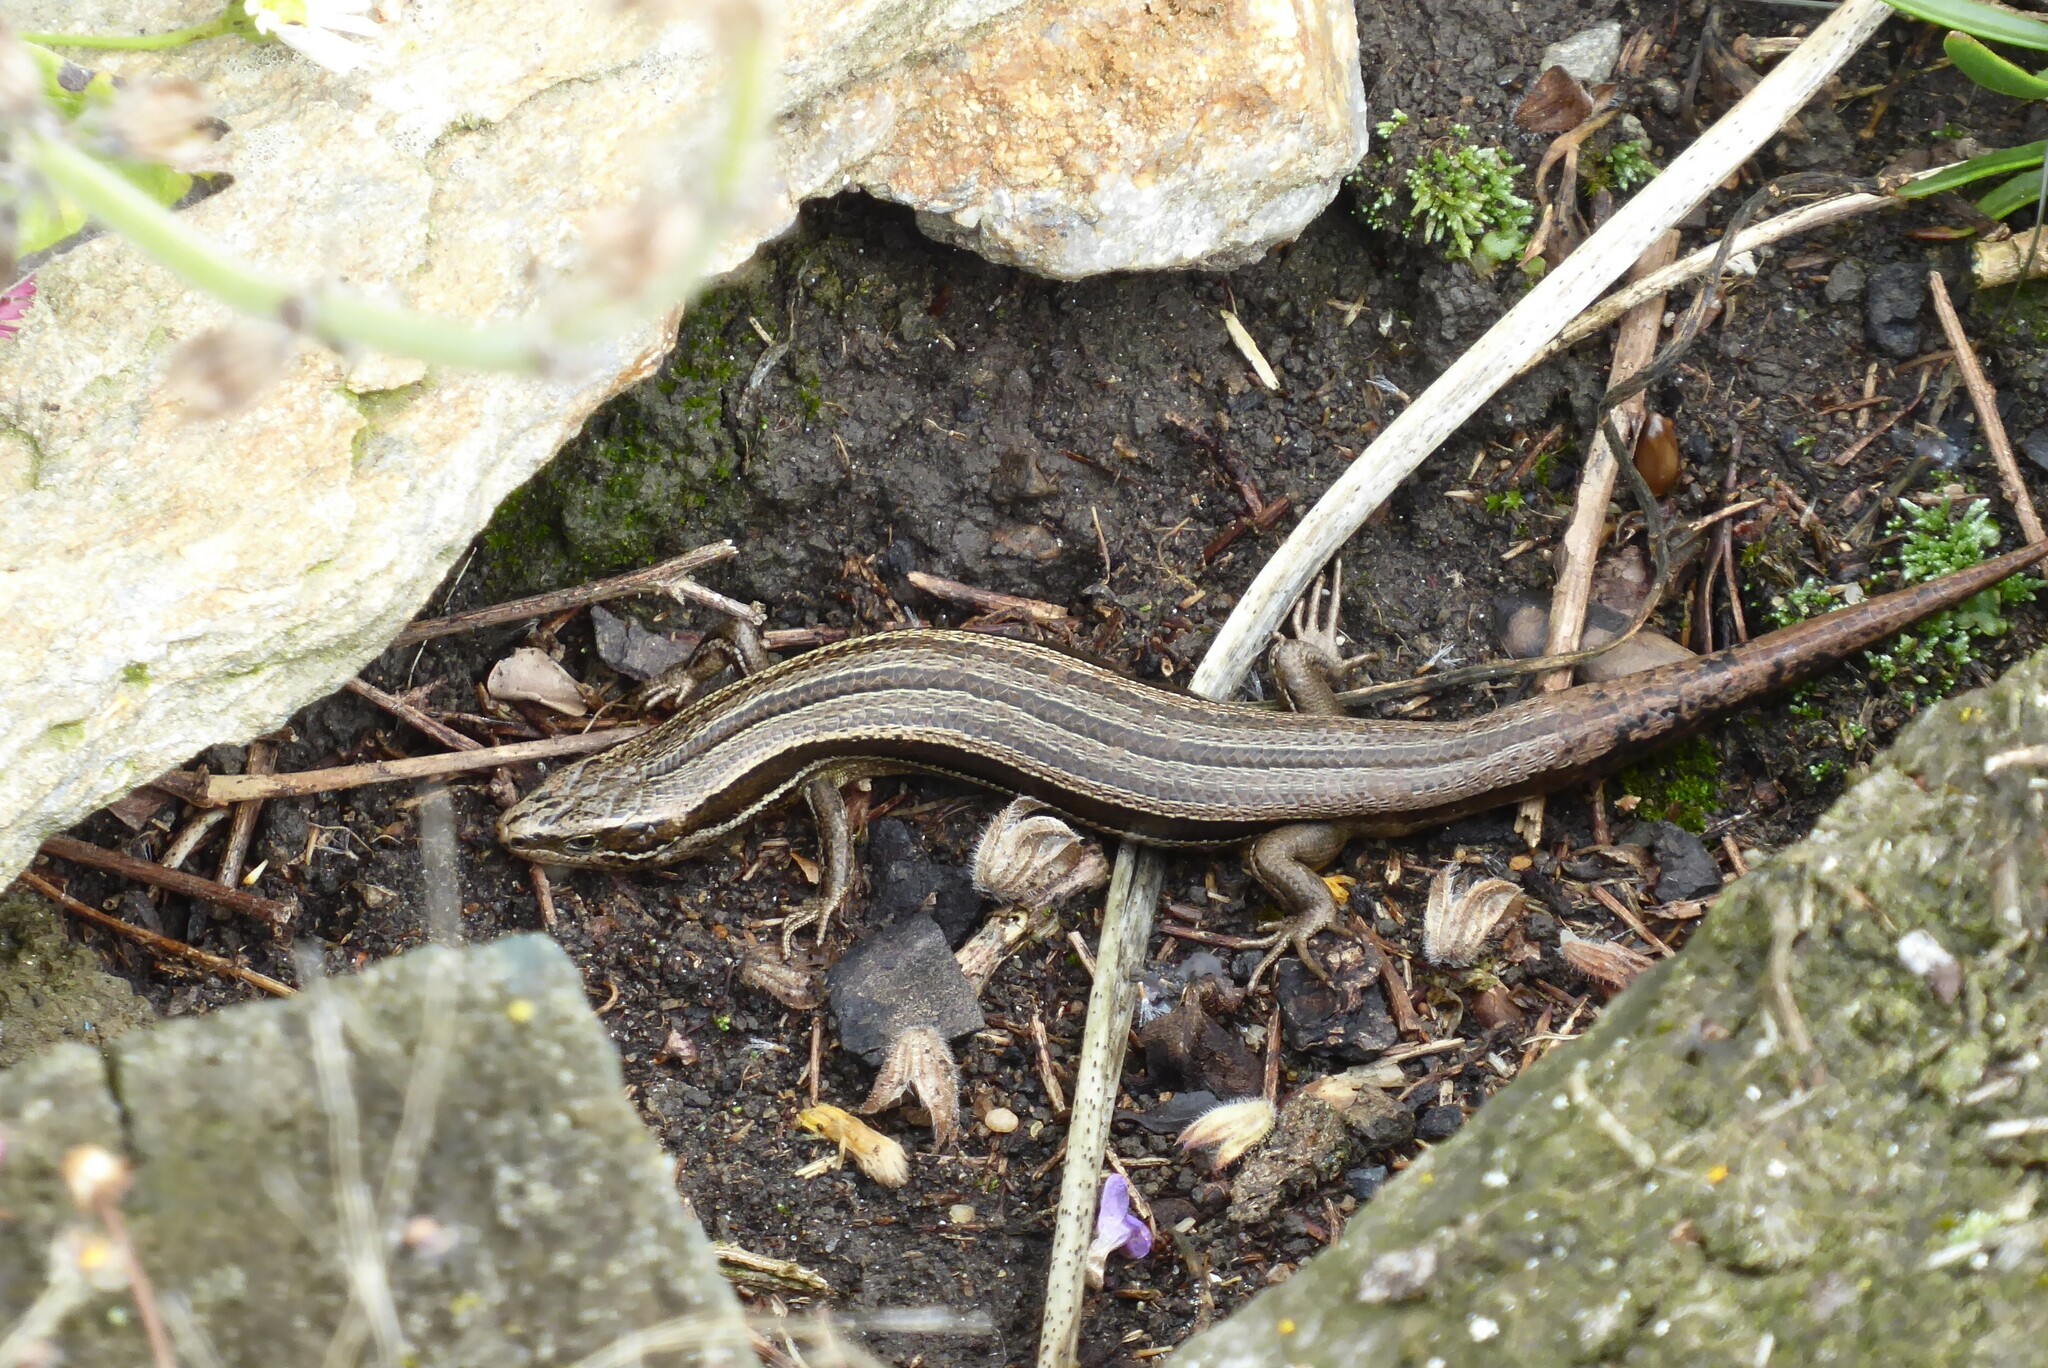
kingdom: Animalia
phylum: Chordata
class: Squamata
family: Scincidae
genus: Oligosoma
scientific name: Oligosoma polychroma
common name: Common new zealand skink
